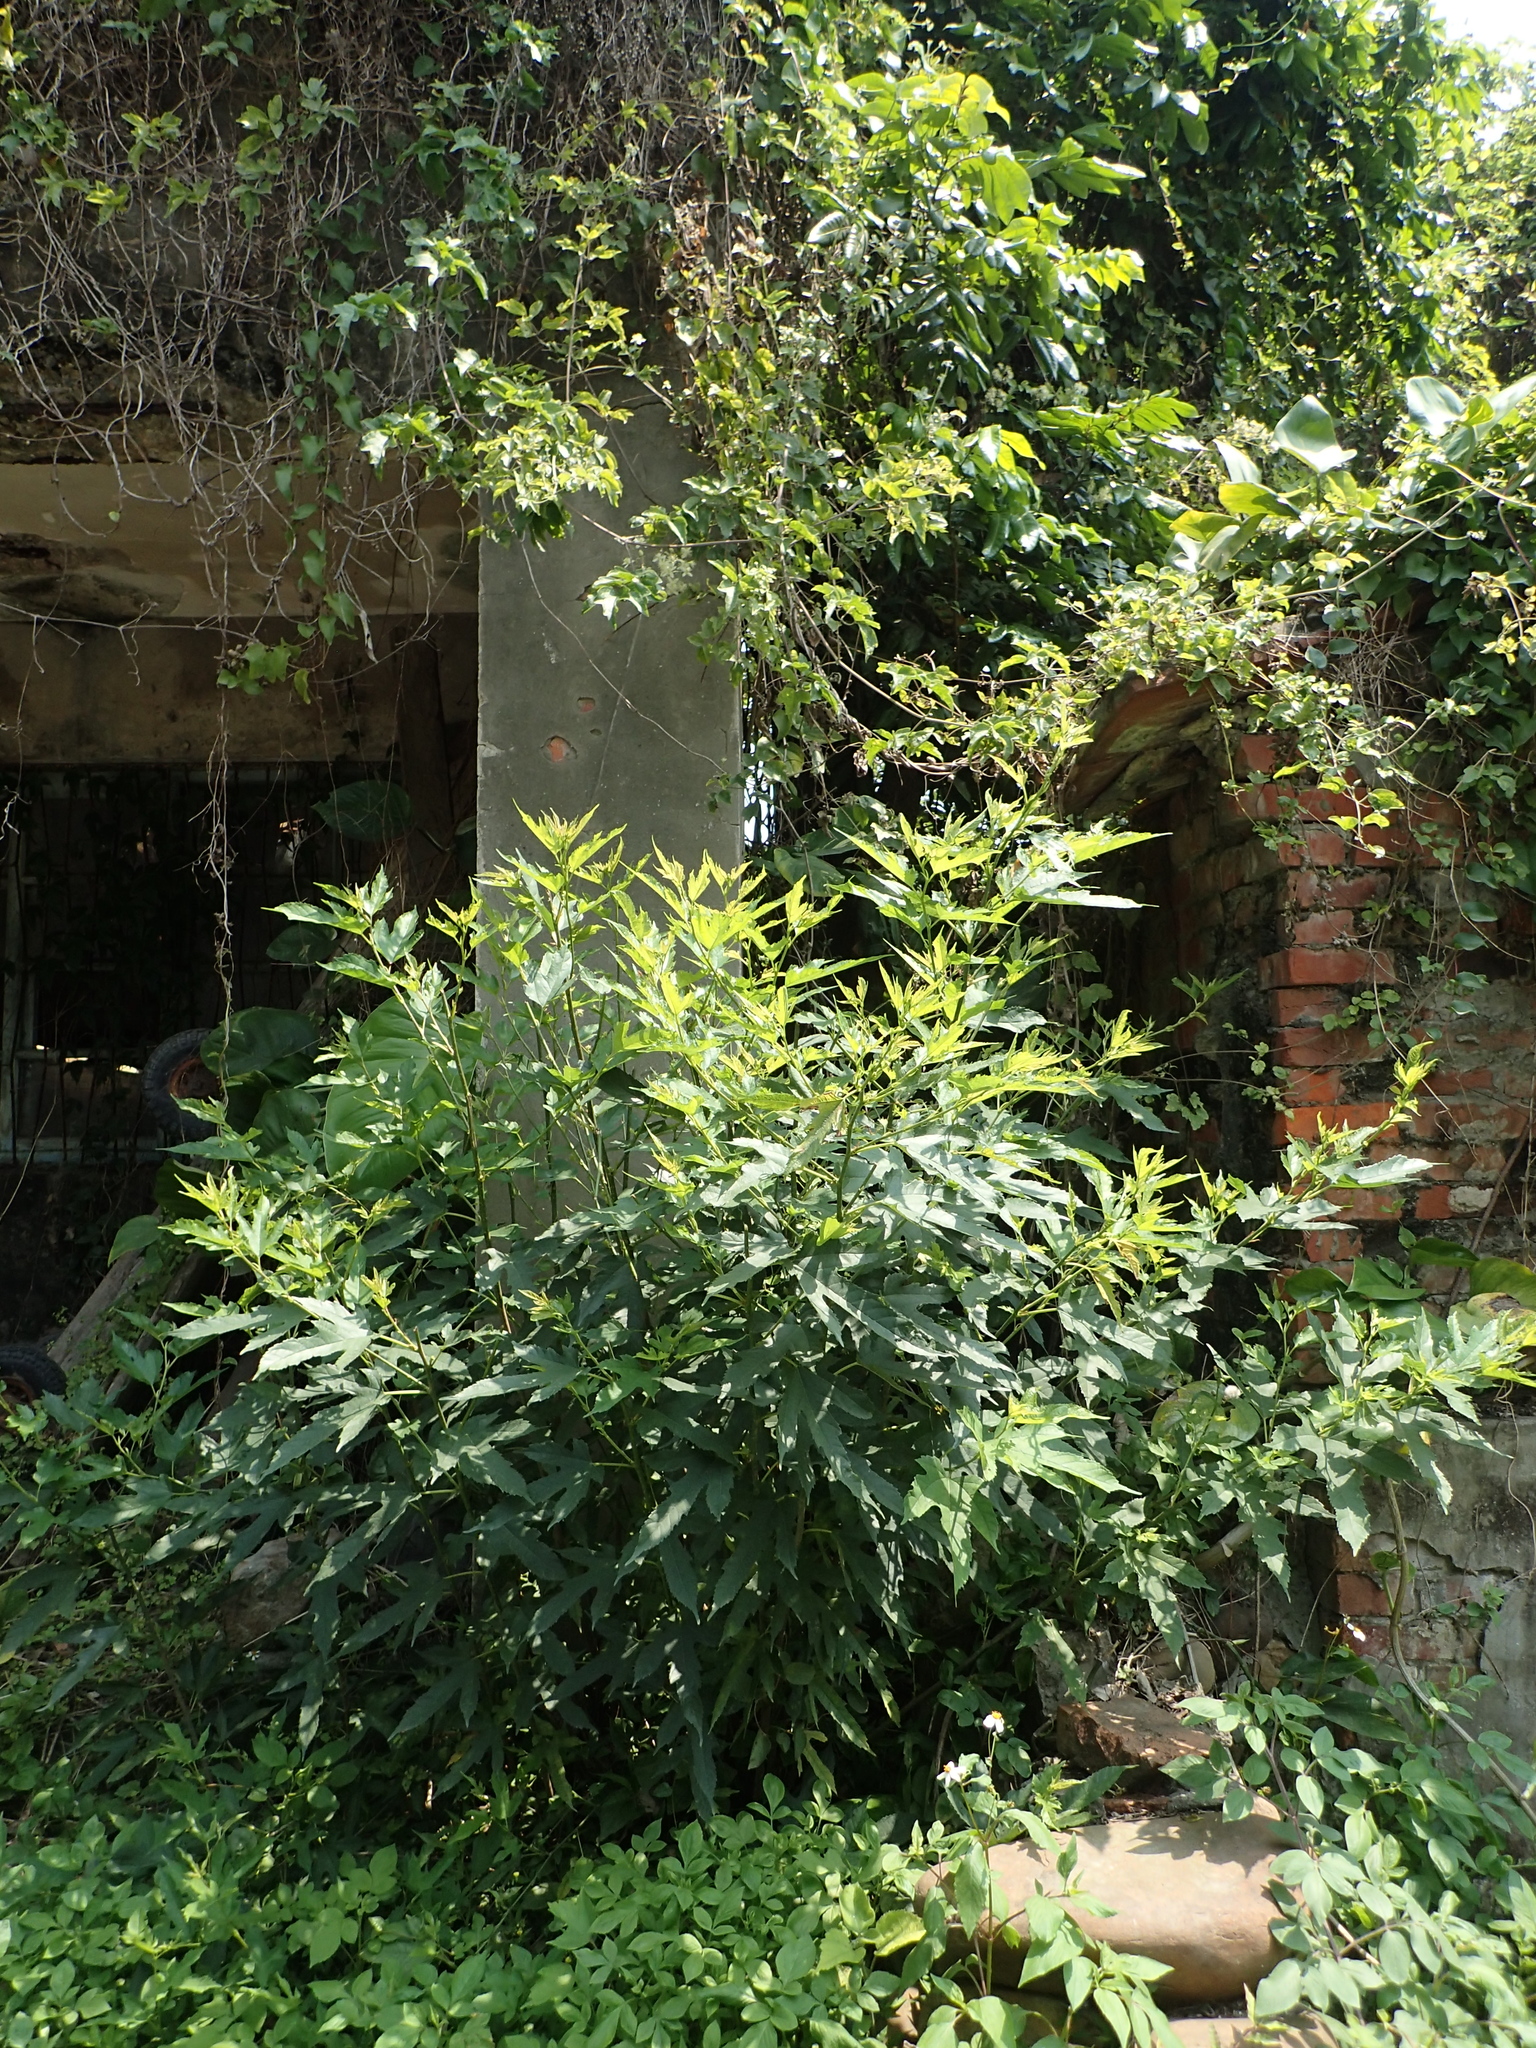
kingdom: Plantae
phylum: Tracheophyta
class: Magnoliopsida
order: Rosales
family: Moraceae
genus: Morus
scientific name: Morus indica
